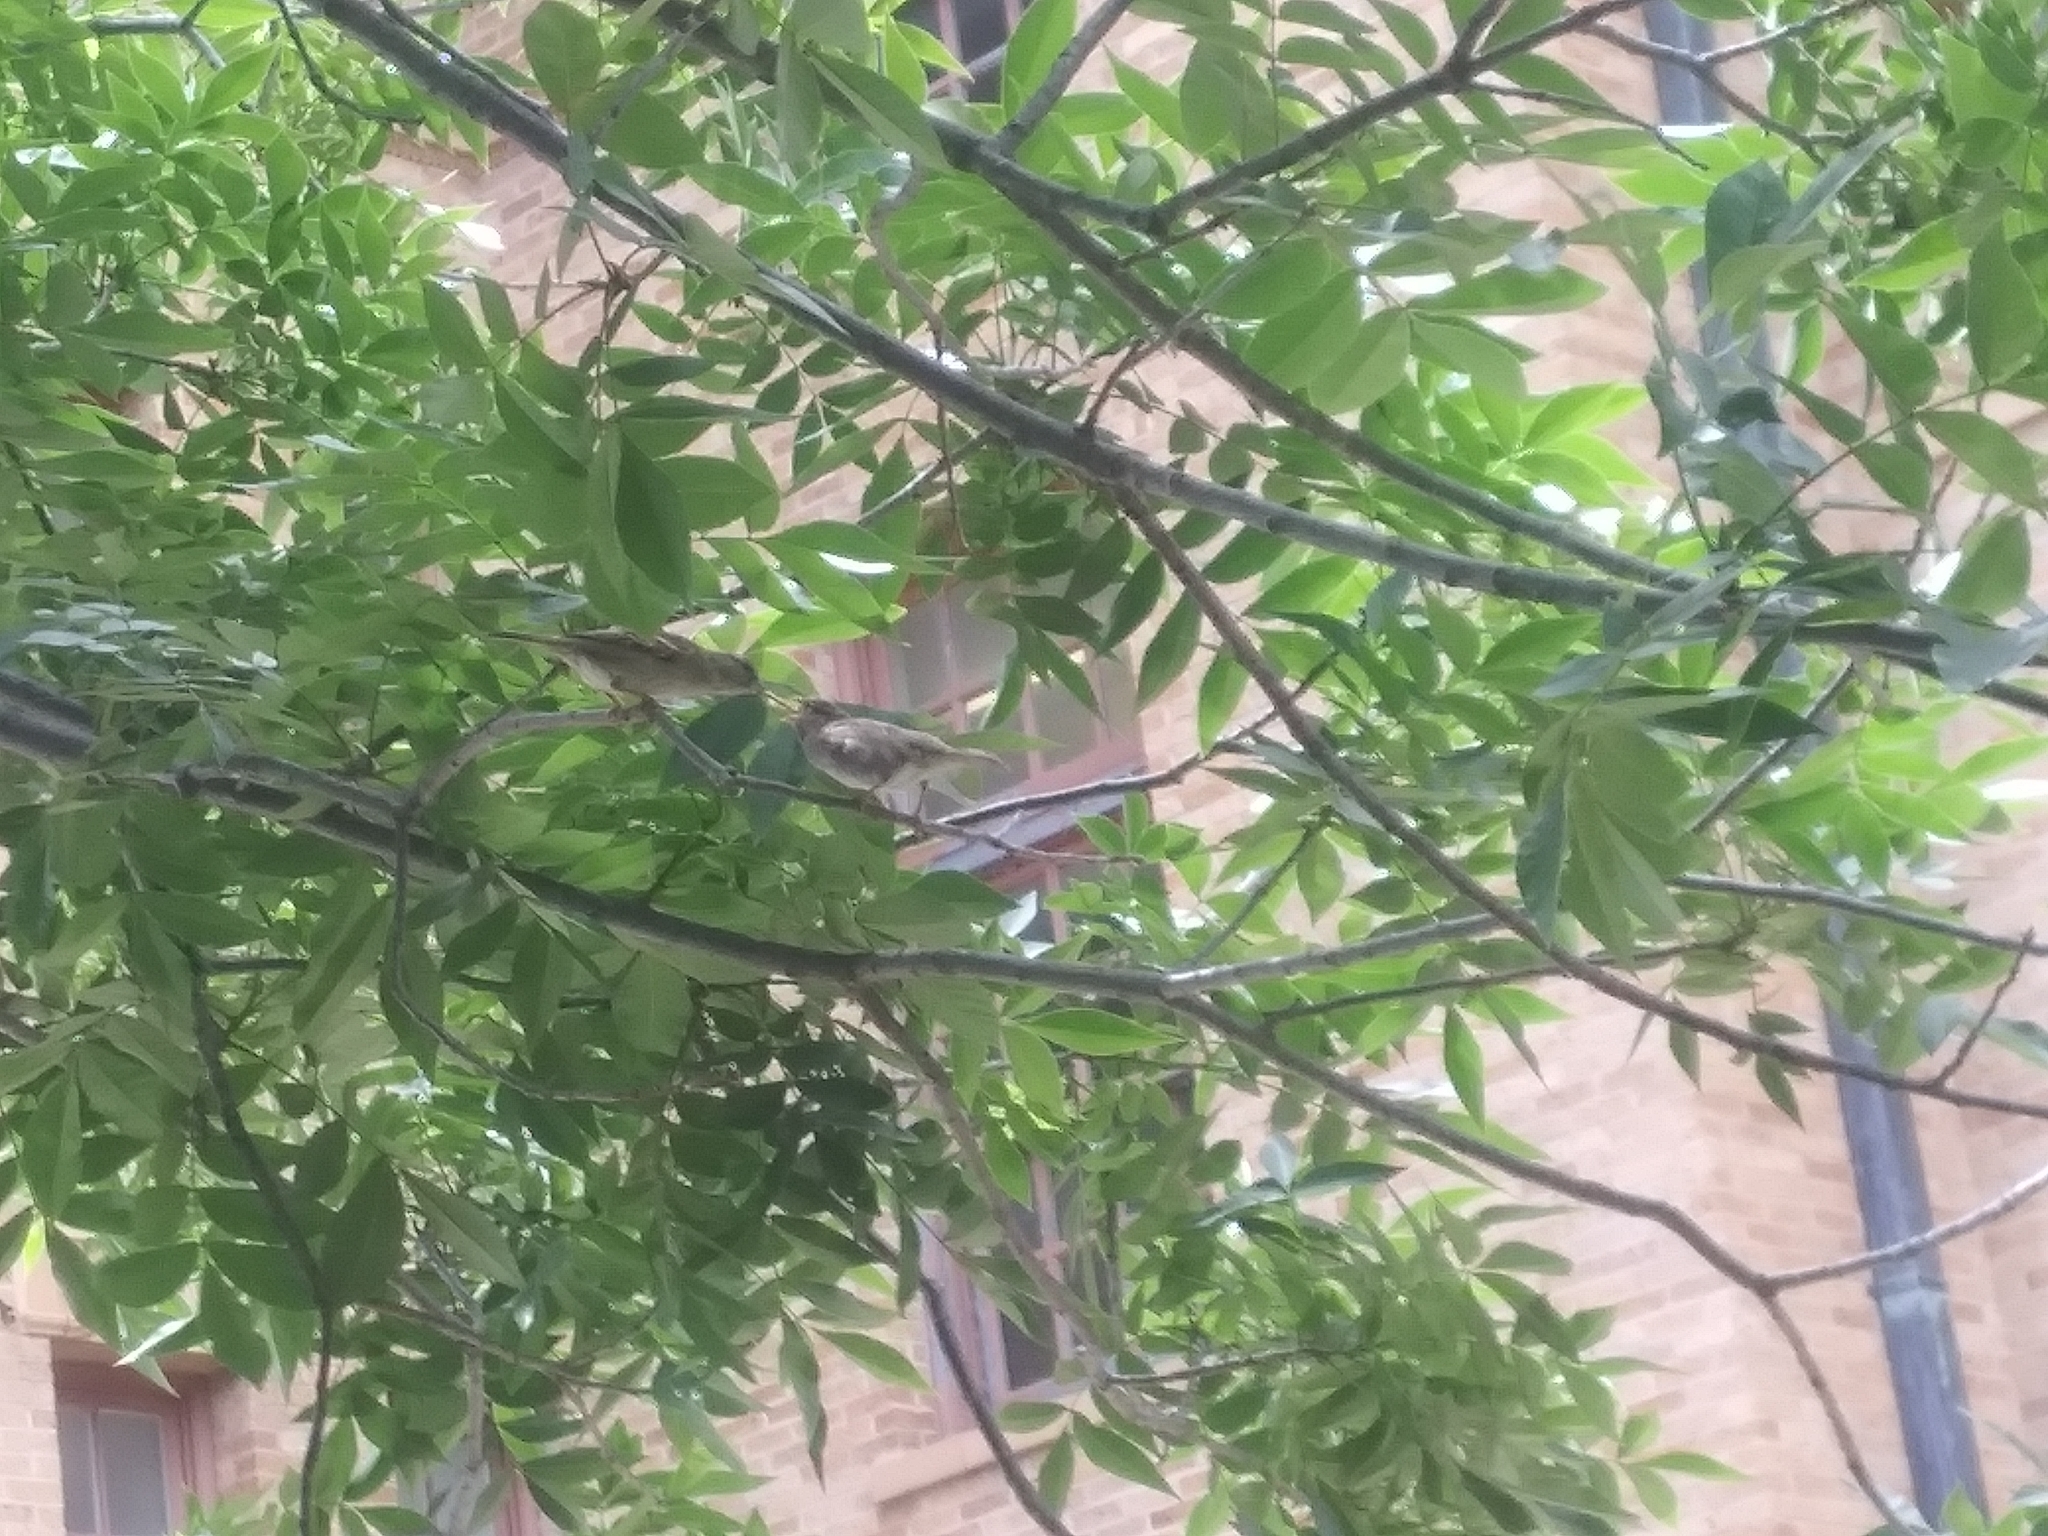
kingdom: Animalia
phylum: Chordata
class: Aves
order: Passeriformes
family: Passeridae
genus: Passer
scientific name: Passer domesticus
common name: House sparrow
